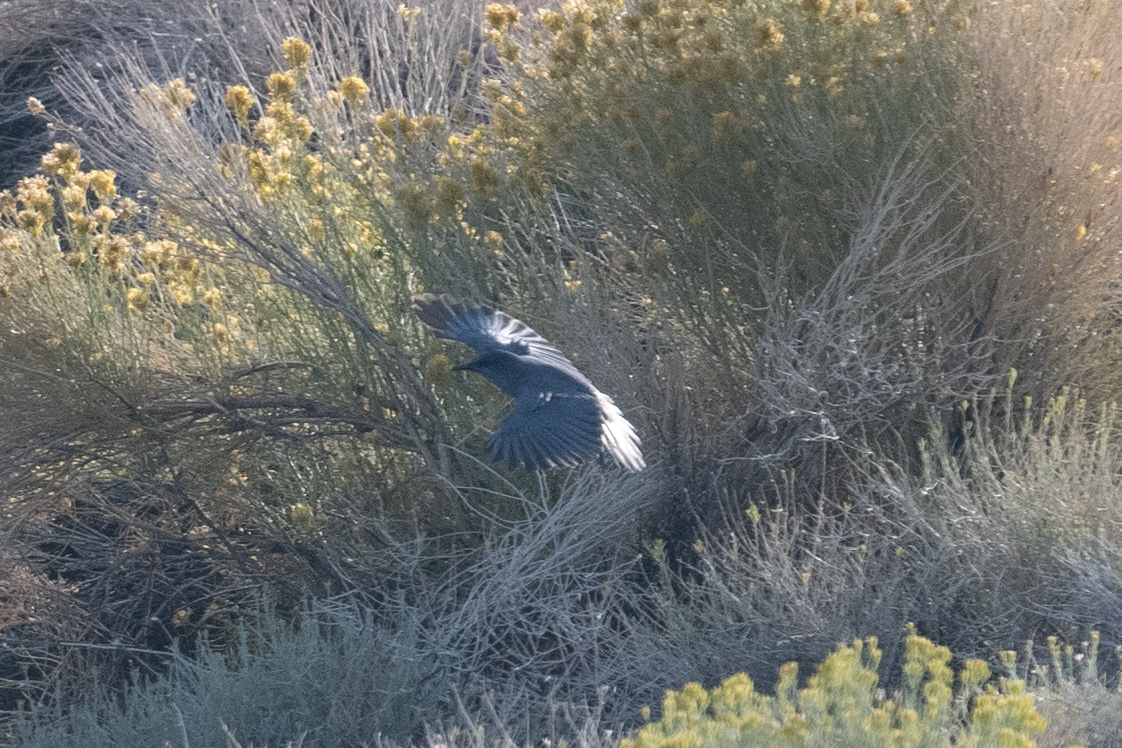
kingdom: Animalia
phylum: Chordata
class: Aves
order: Passeriformes
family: Corvidae
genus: Gymnorhinus
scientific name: Gymnorhinus cyanocephalus
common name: Pinyon jay
